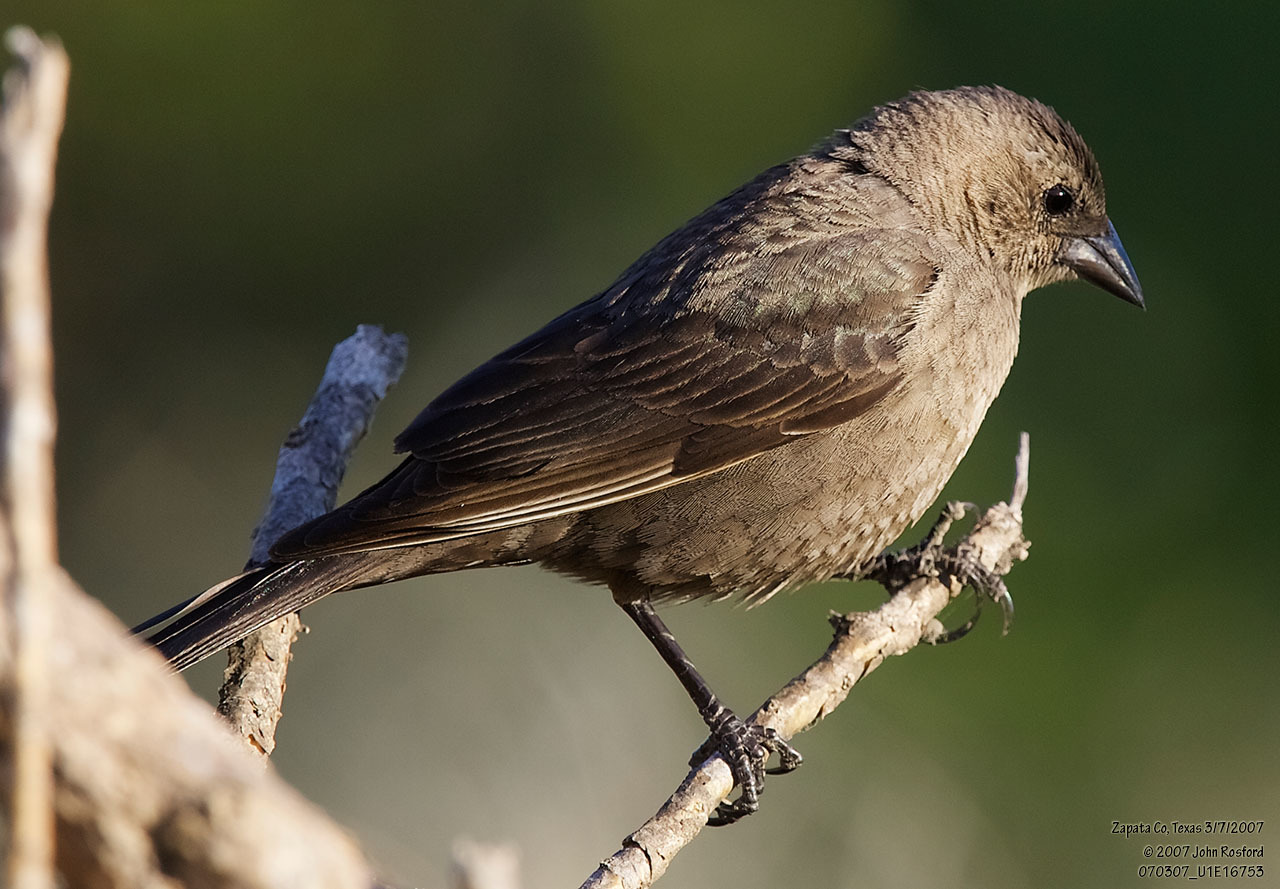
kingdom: Animalia
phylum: Chordata
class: Aves
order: Passeriformes
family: Icteridae
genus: Molothrus
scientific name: Molothrus ater
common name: Brown-headed cowbird
